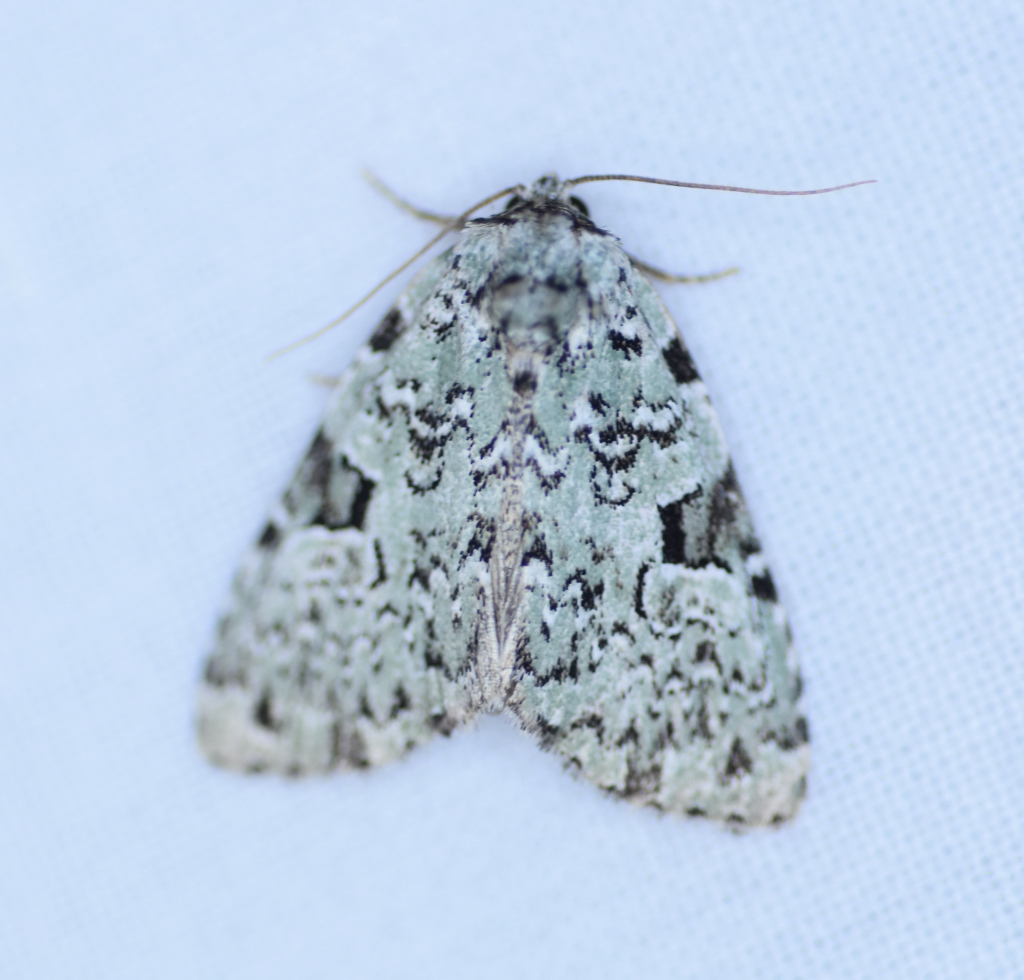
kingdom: Animalia
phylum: Arthropoda
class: Insecta
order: Lepidoptera
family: Noctuidae
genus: Leuconycta
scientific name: Leuconycta diphteroides
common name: Green leuconycta moth
